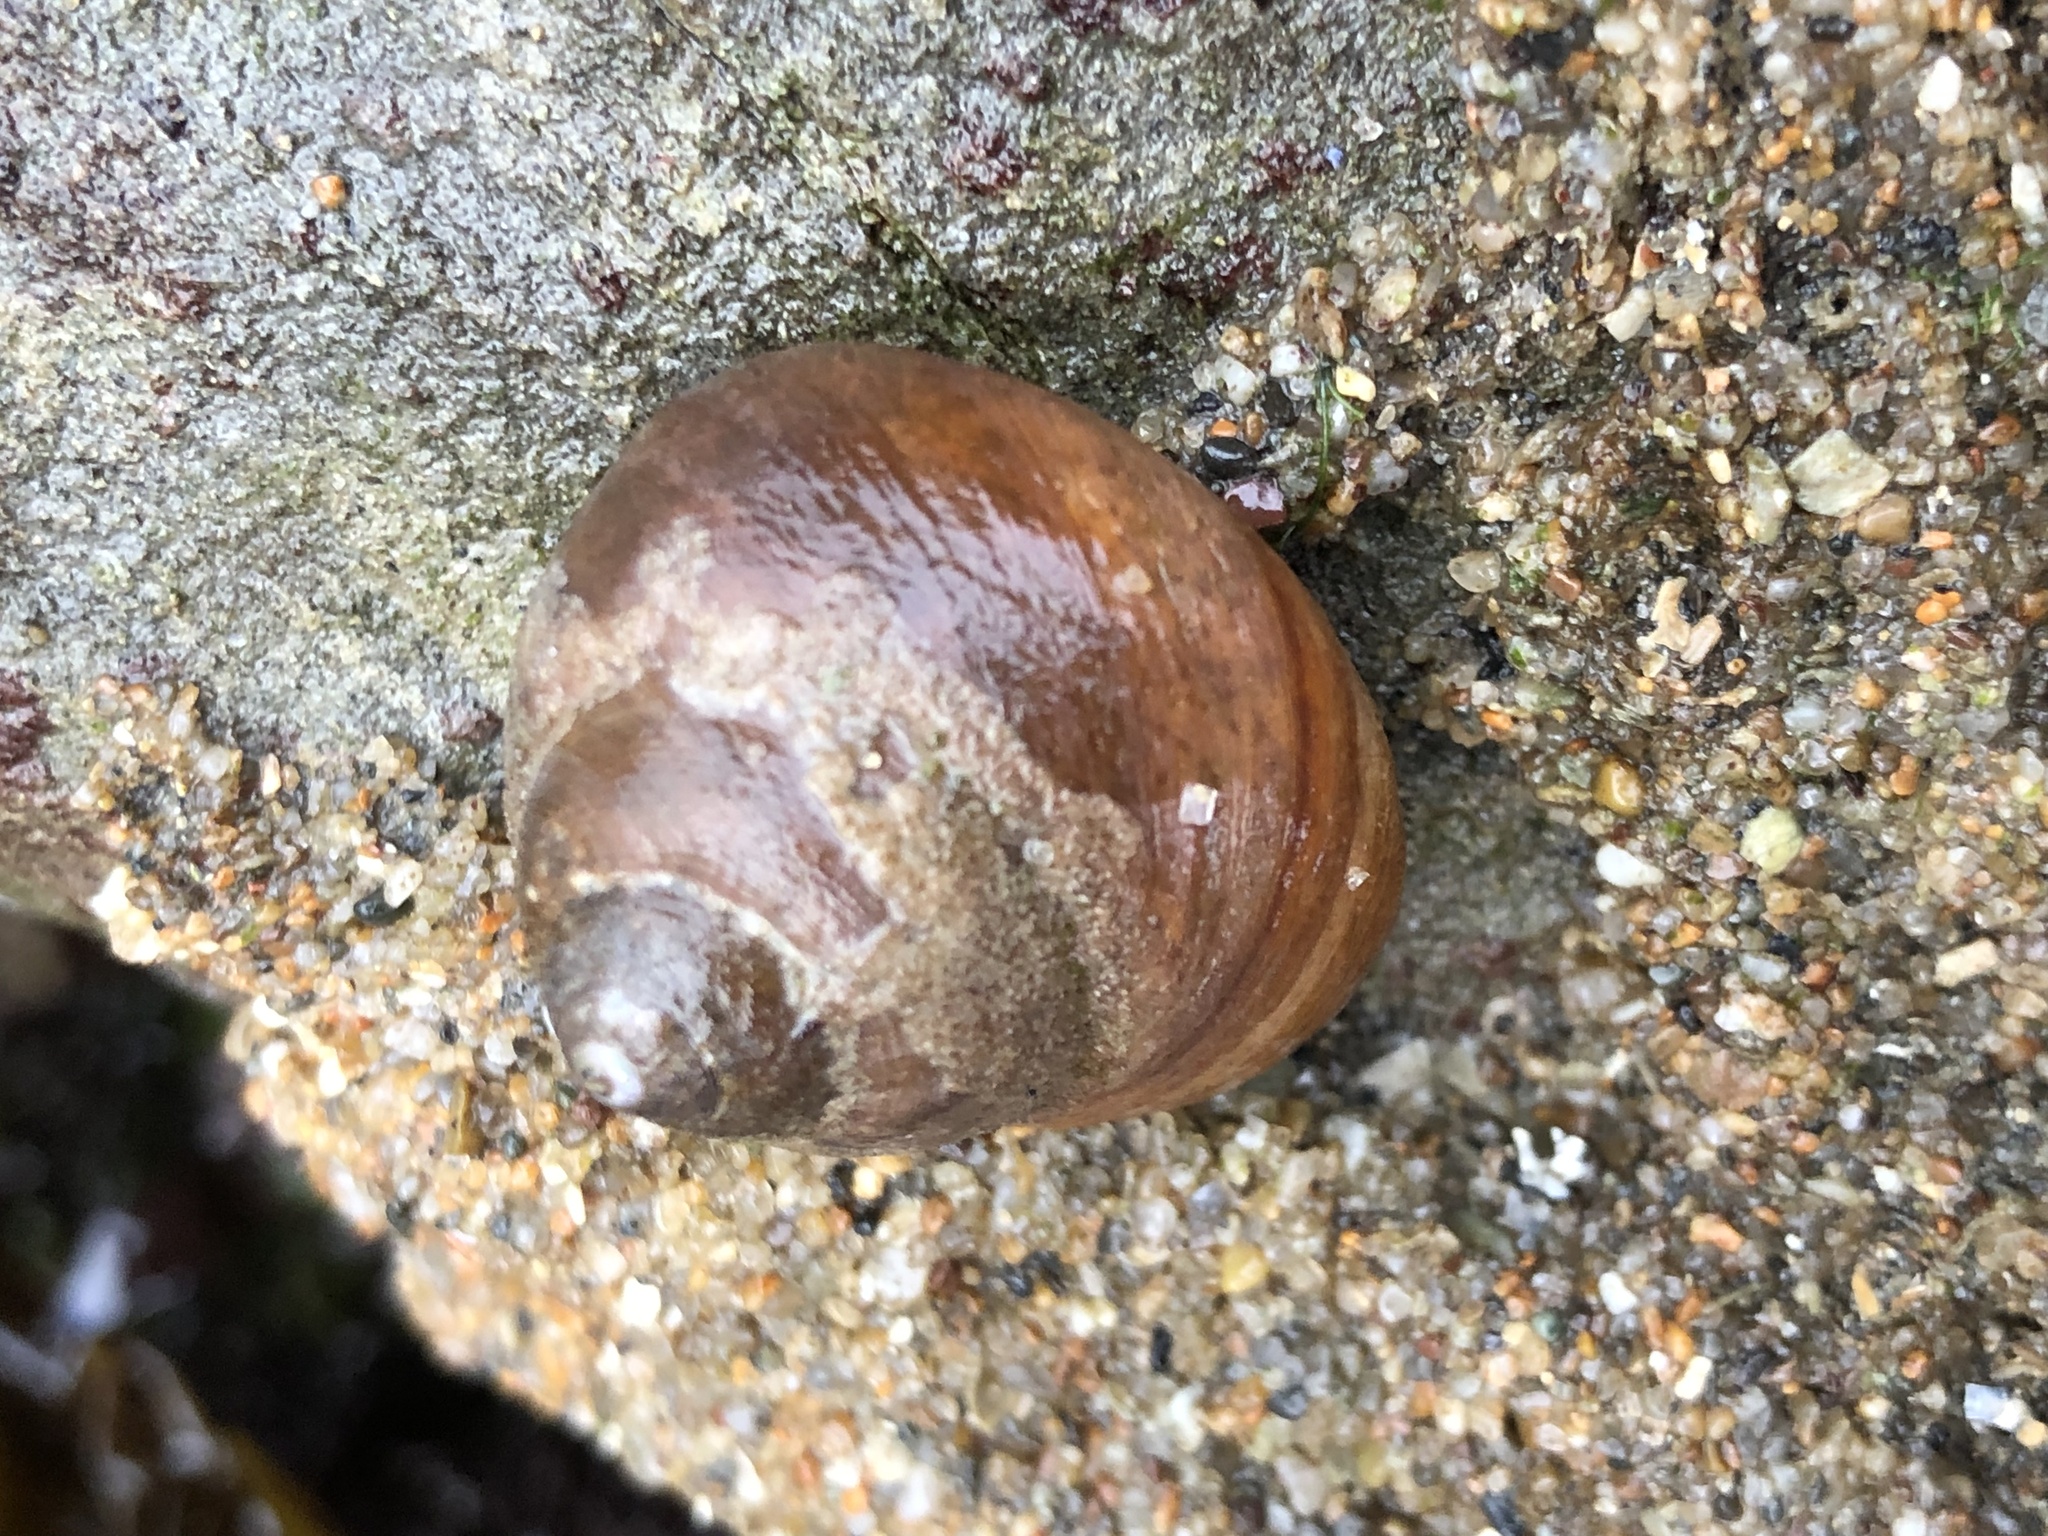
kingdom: Animalia
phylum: Mollusca
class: Gastropoda
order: Trochida
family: Tegulidae
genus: Tegula
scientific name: Tegula brunnea
